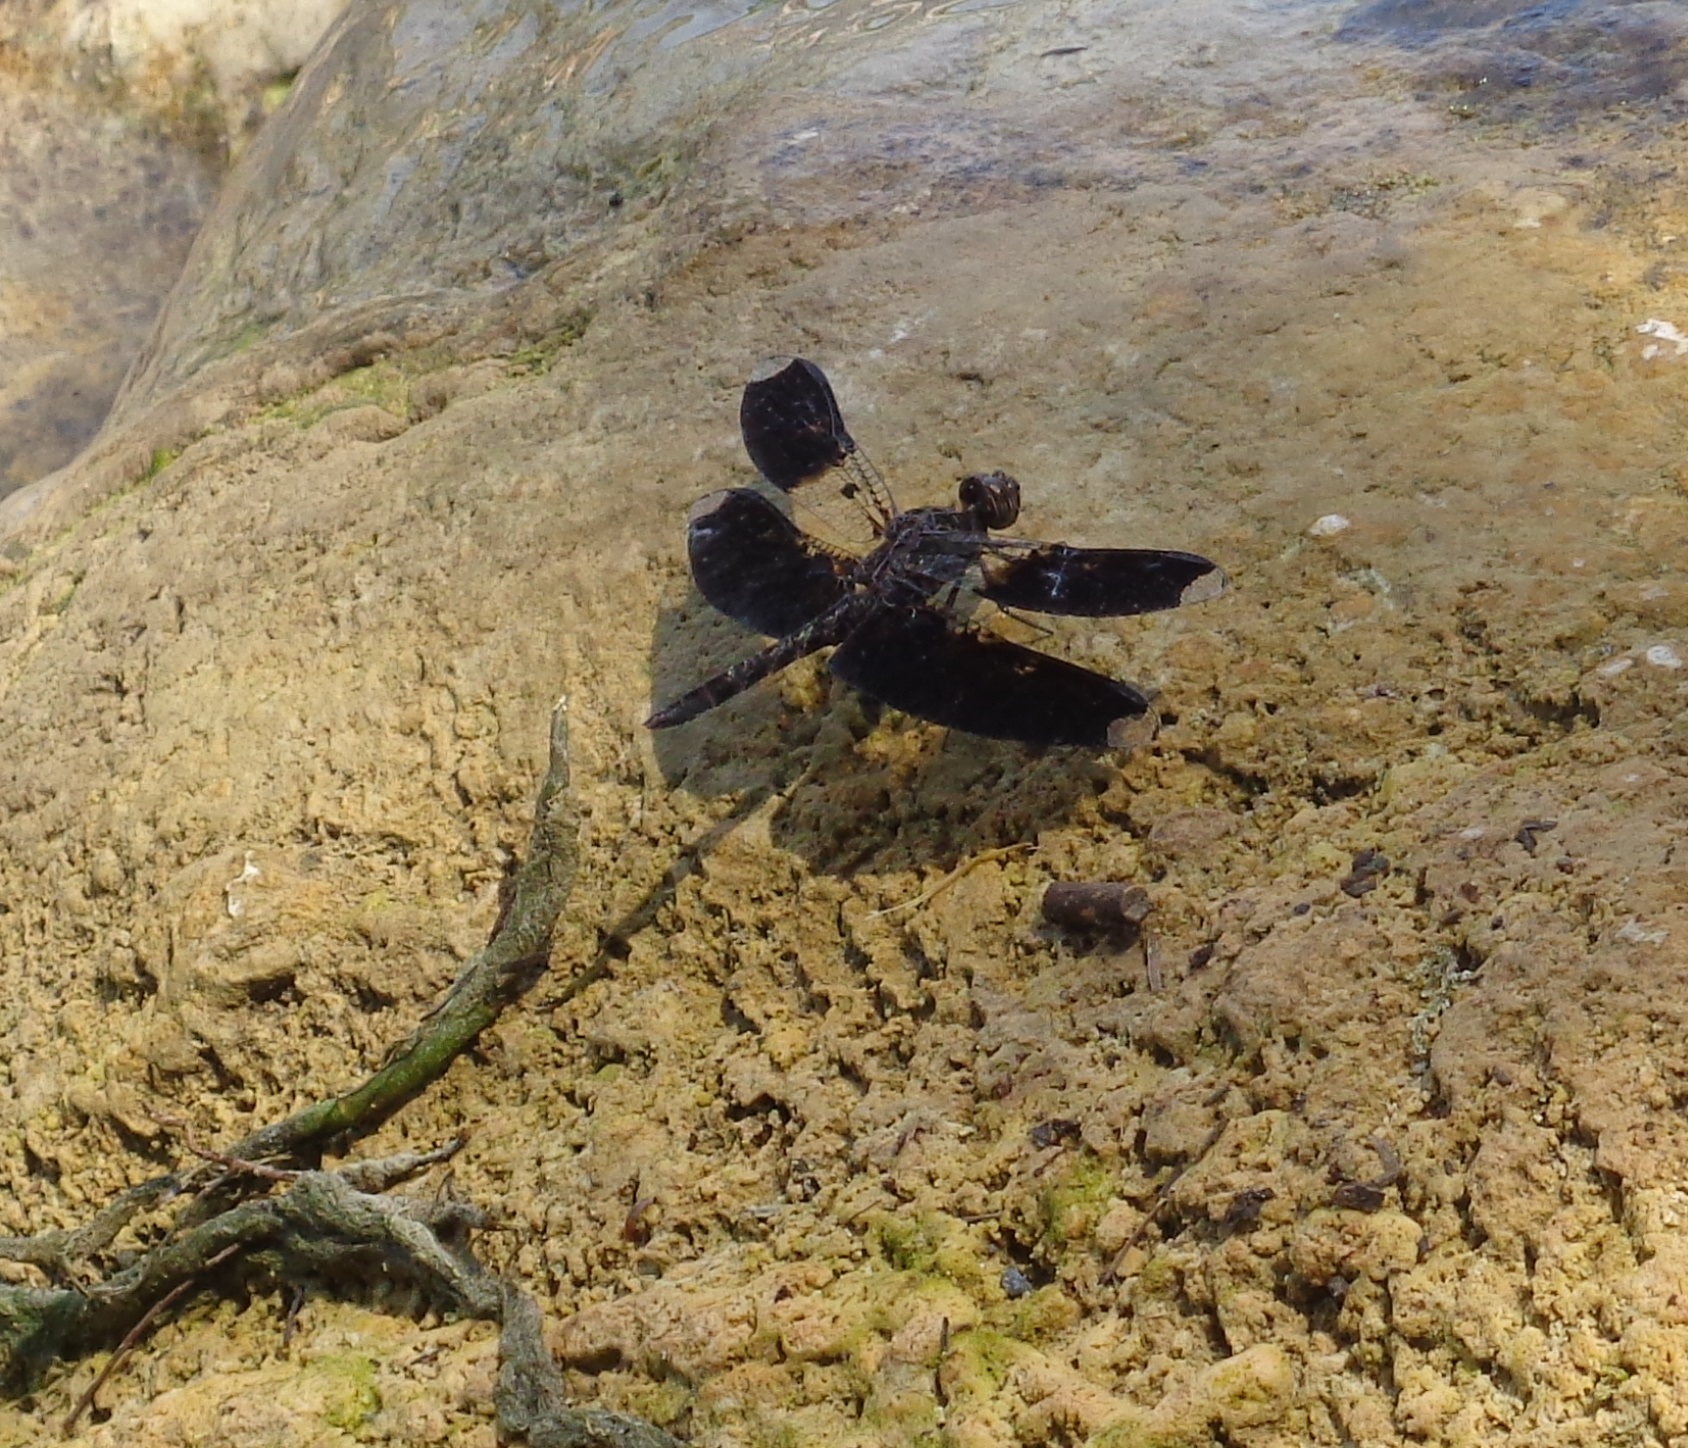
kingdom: Animalia
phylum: Arthropoda
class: Insecta
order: Odonata
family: Libellulidae
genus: Pseudoleon
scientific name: Pseudoleon superbus
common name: Filigree skimmer
